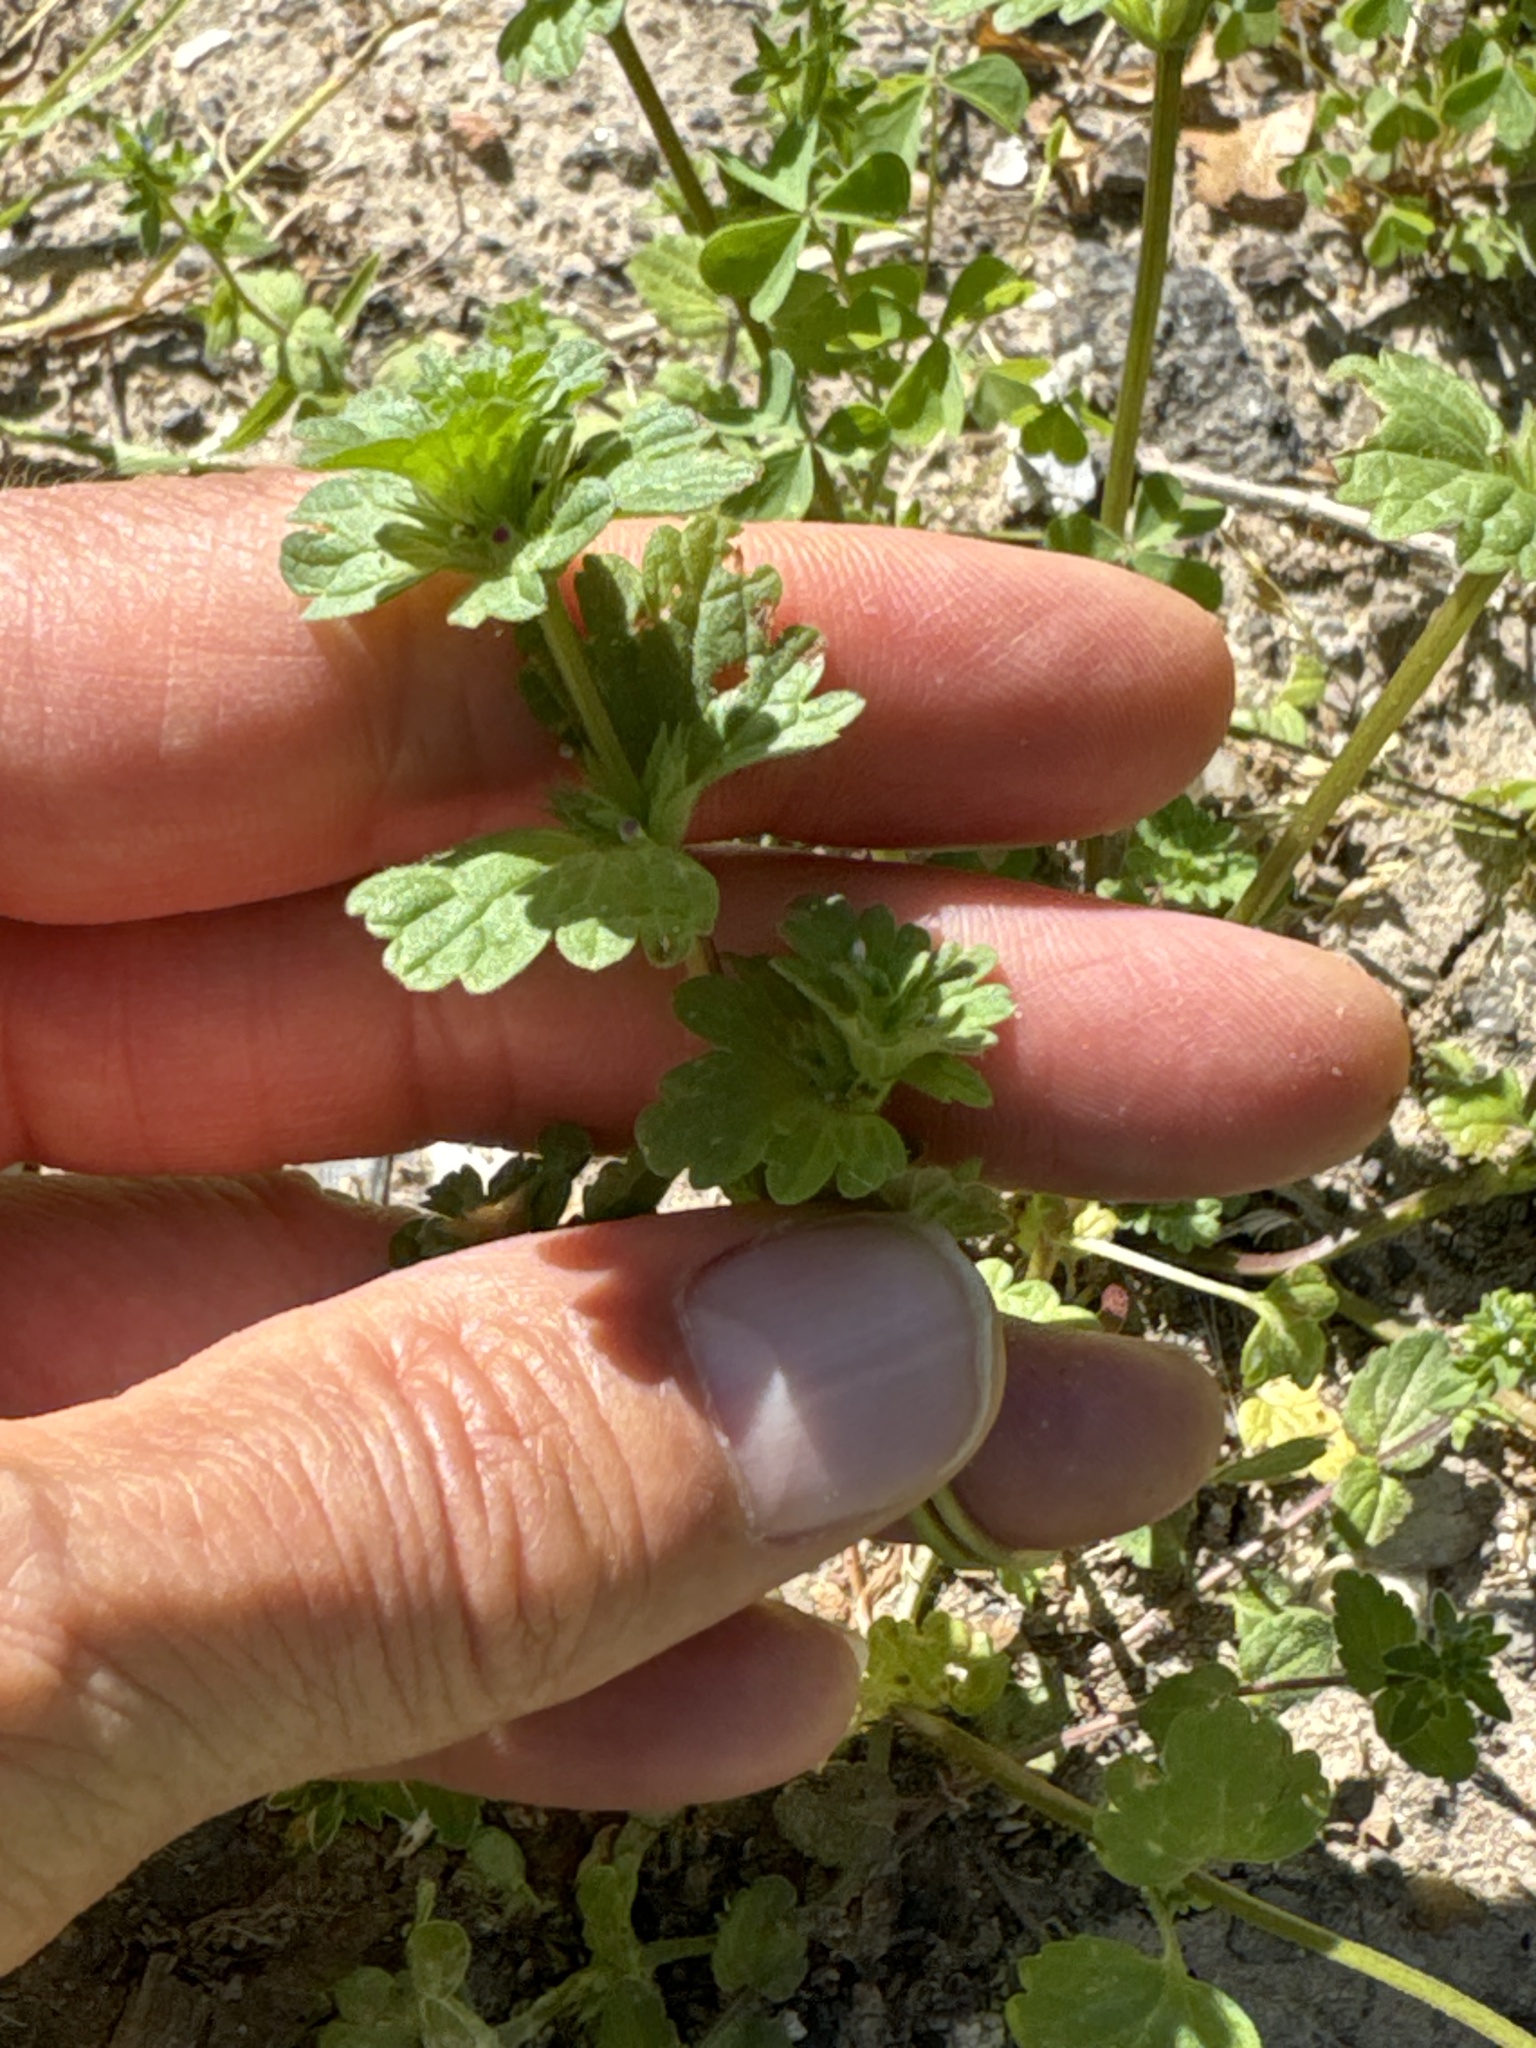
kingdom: Plantae
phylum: Tracheophyta
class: Magnoliopsida
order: Lamiales
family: Lamiaceae
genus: Lamium
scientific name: Lamium amplexicaule
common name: Henbit dead-nettle
